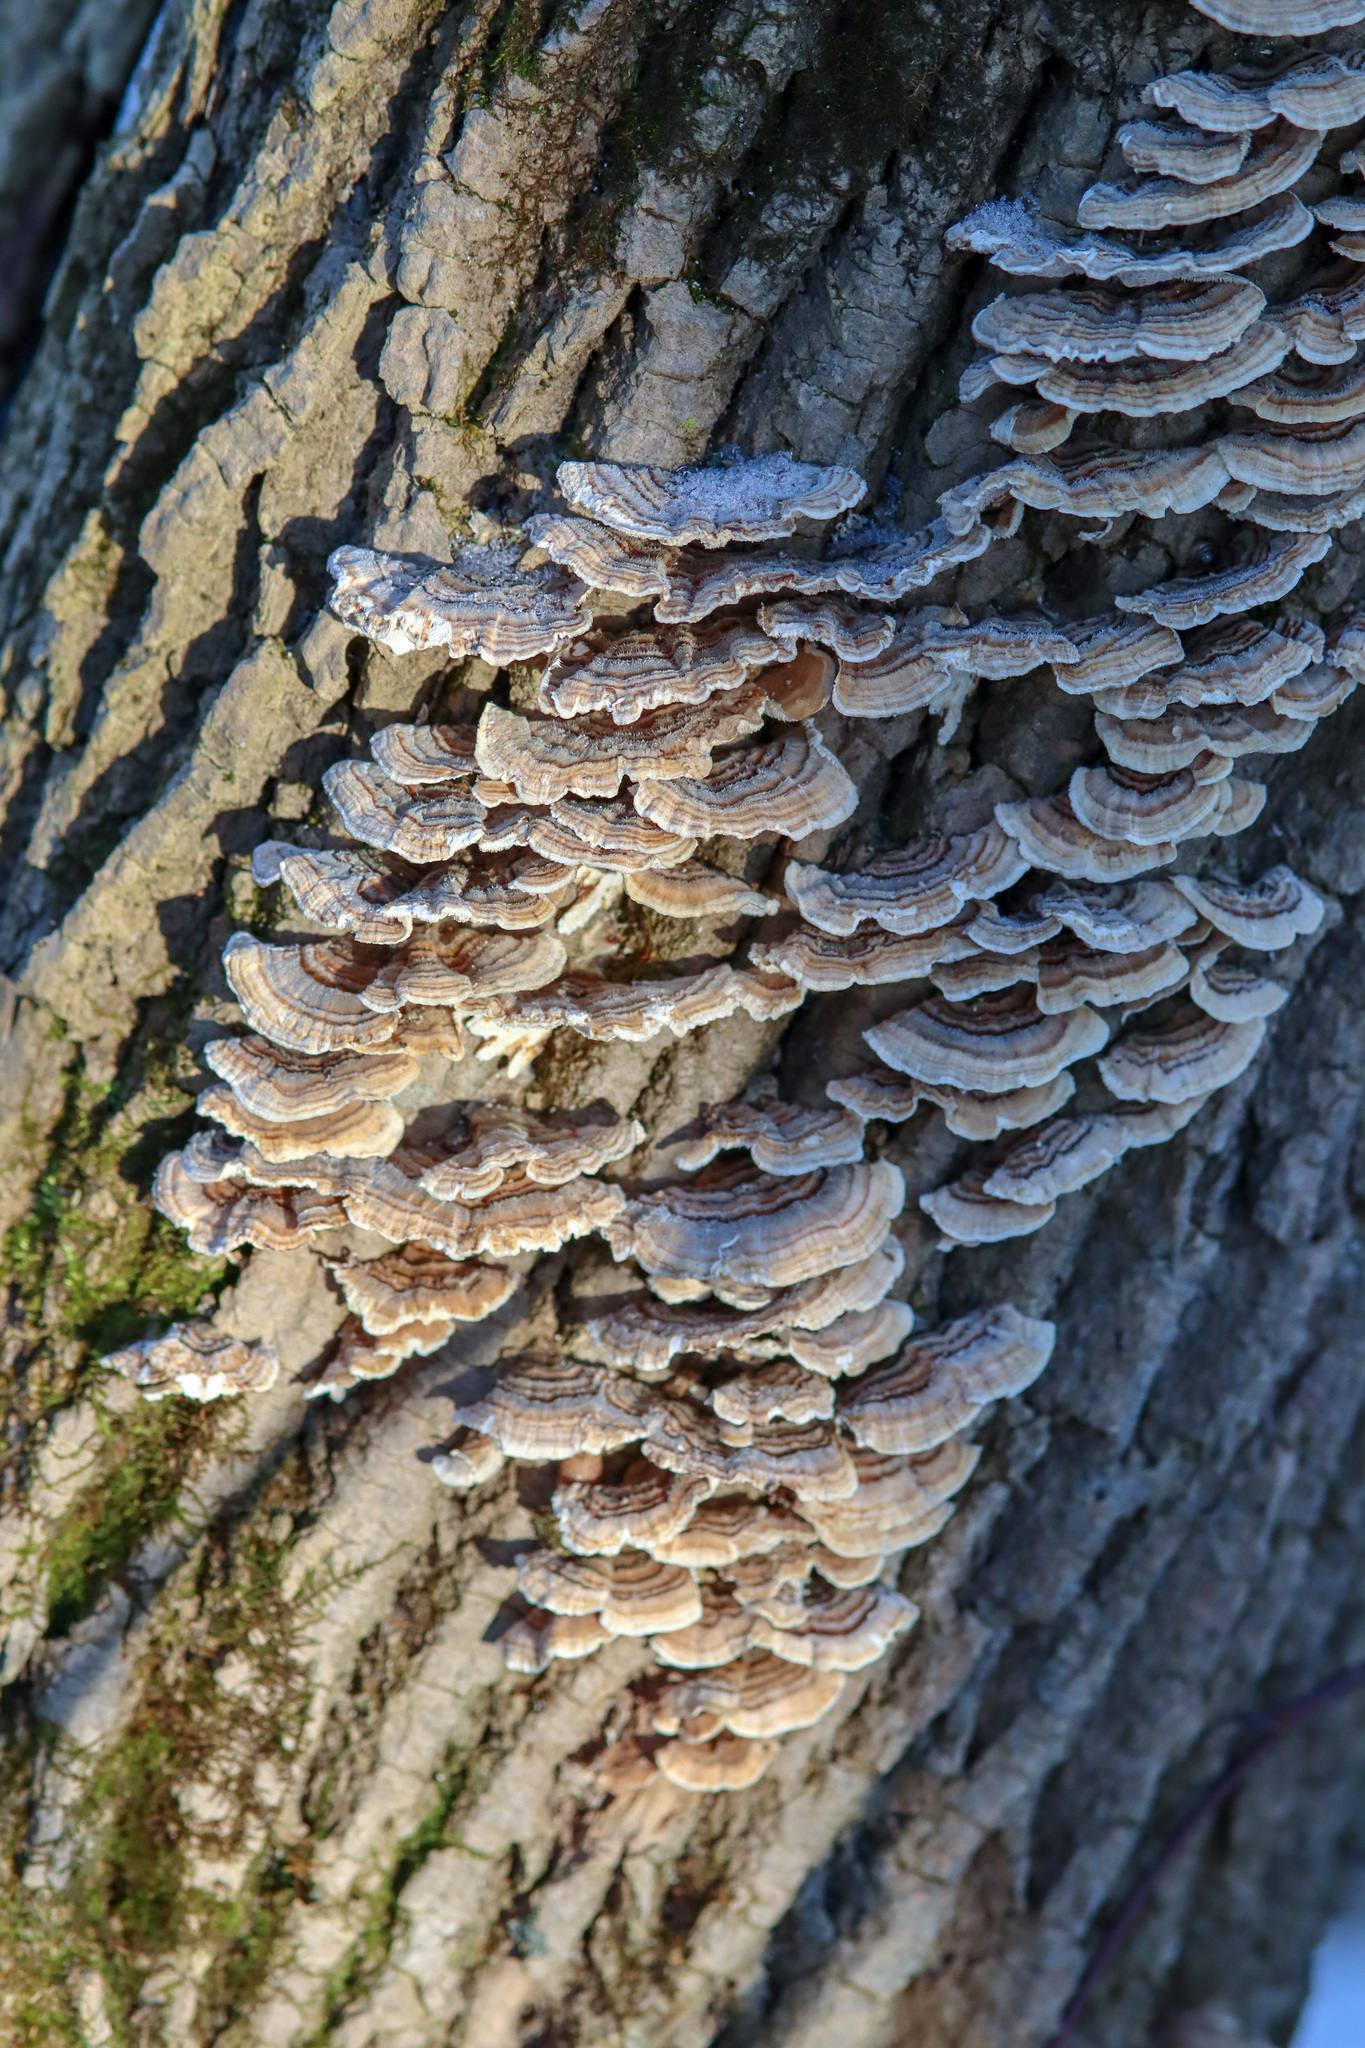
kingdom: Fungi
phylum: Basidiomycota
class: Agaricomycetes
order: Polyporales
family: Polyporaceae
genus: Trametes
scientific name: Trametes versicolor
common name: Turkeytail
